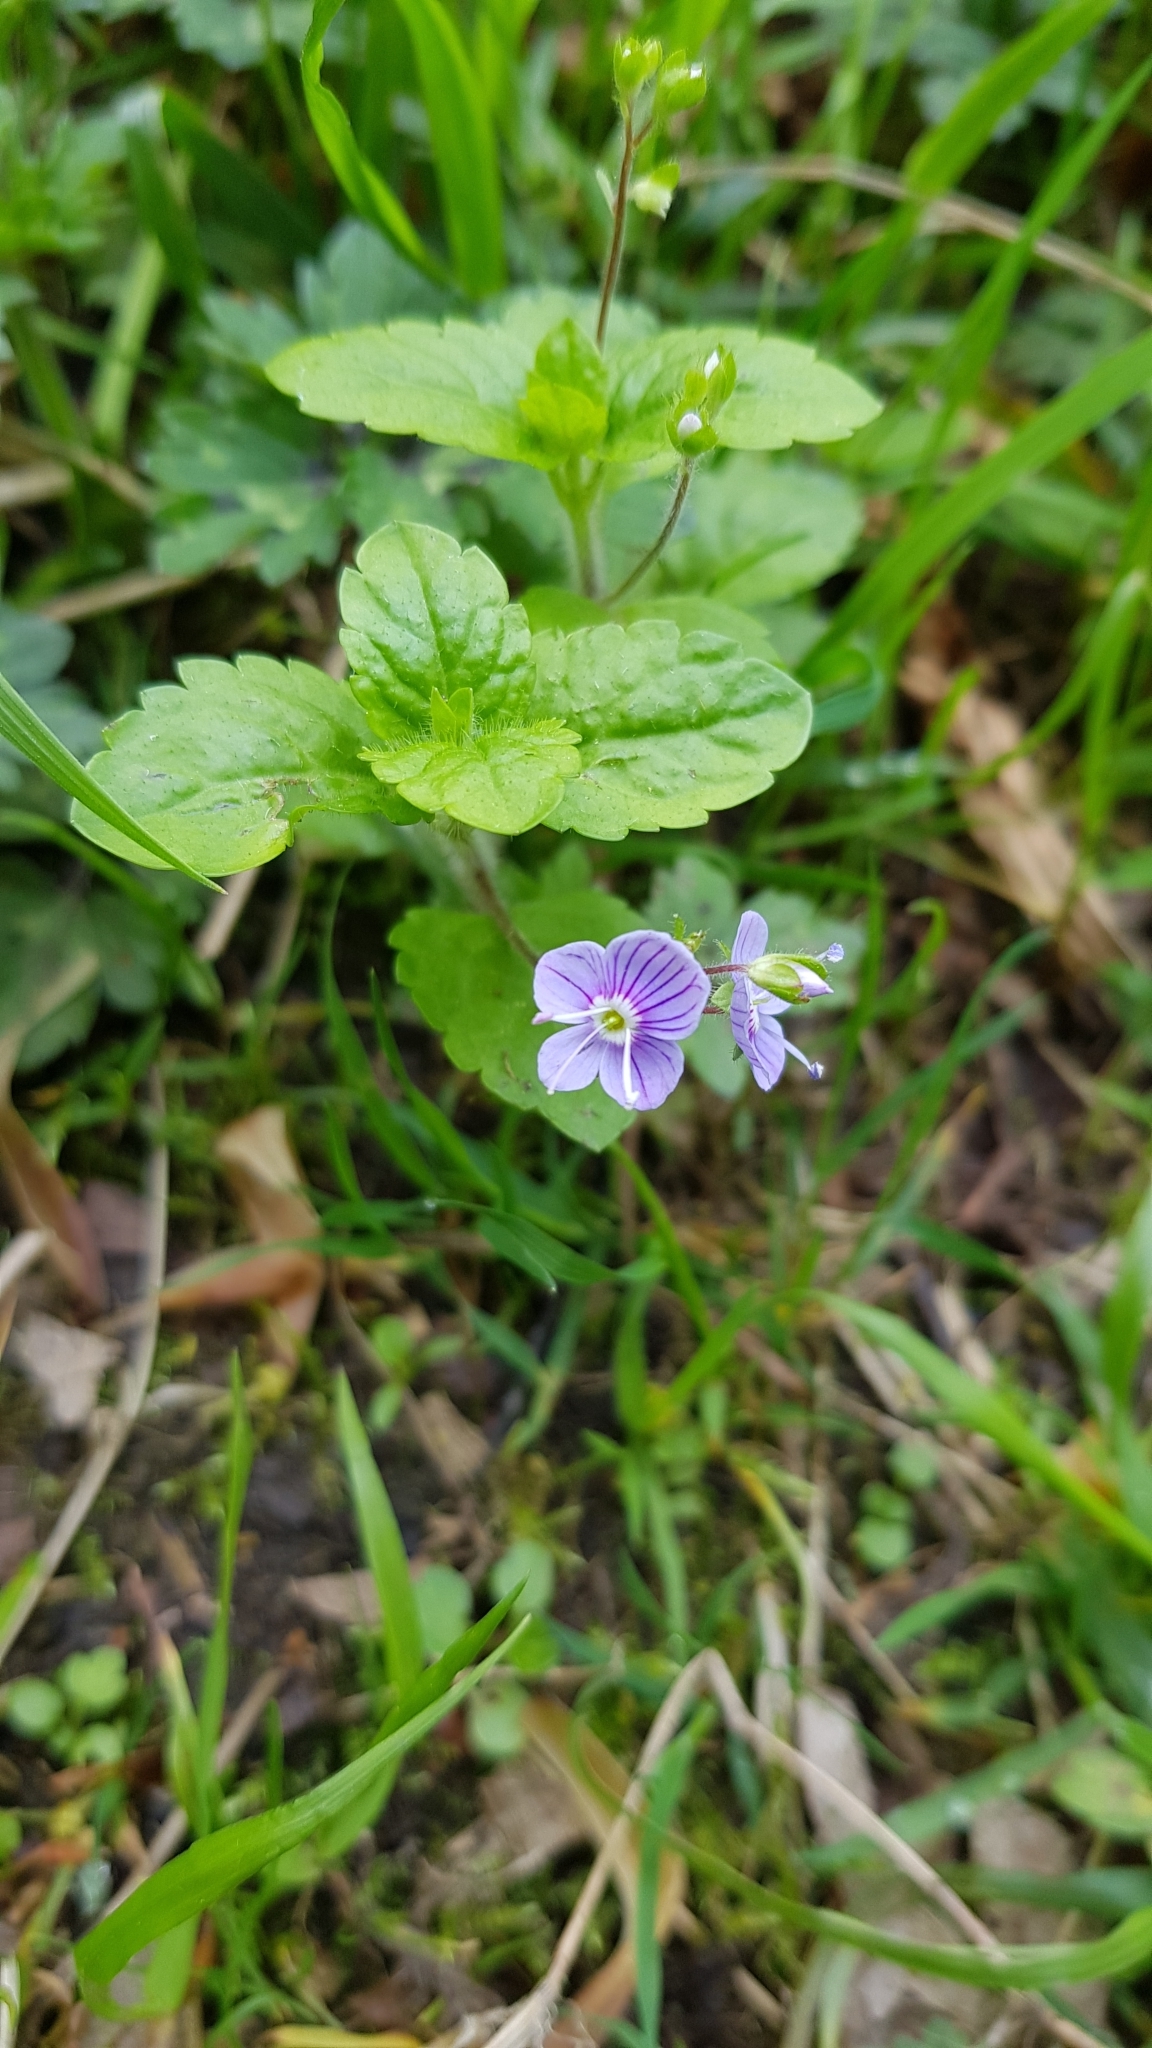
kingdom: Plantae
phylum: Tracheophyta
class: Magnoliopsida
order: Lamiales
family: Plantaginaceae
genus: Veronica
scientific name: Veronica montana
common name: Wood speedwell
